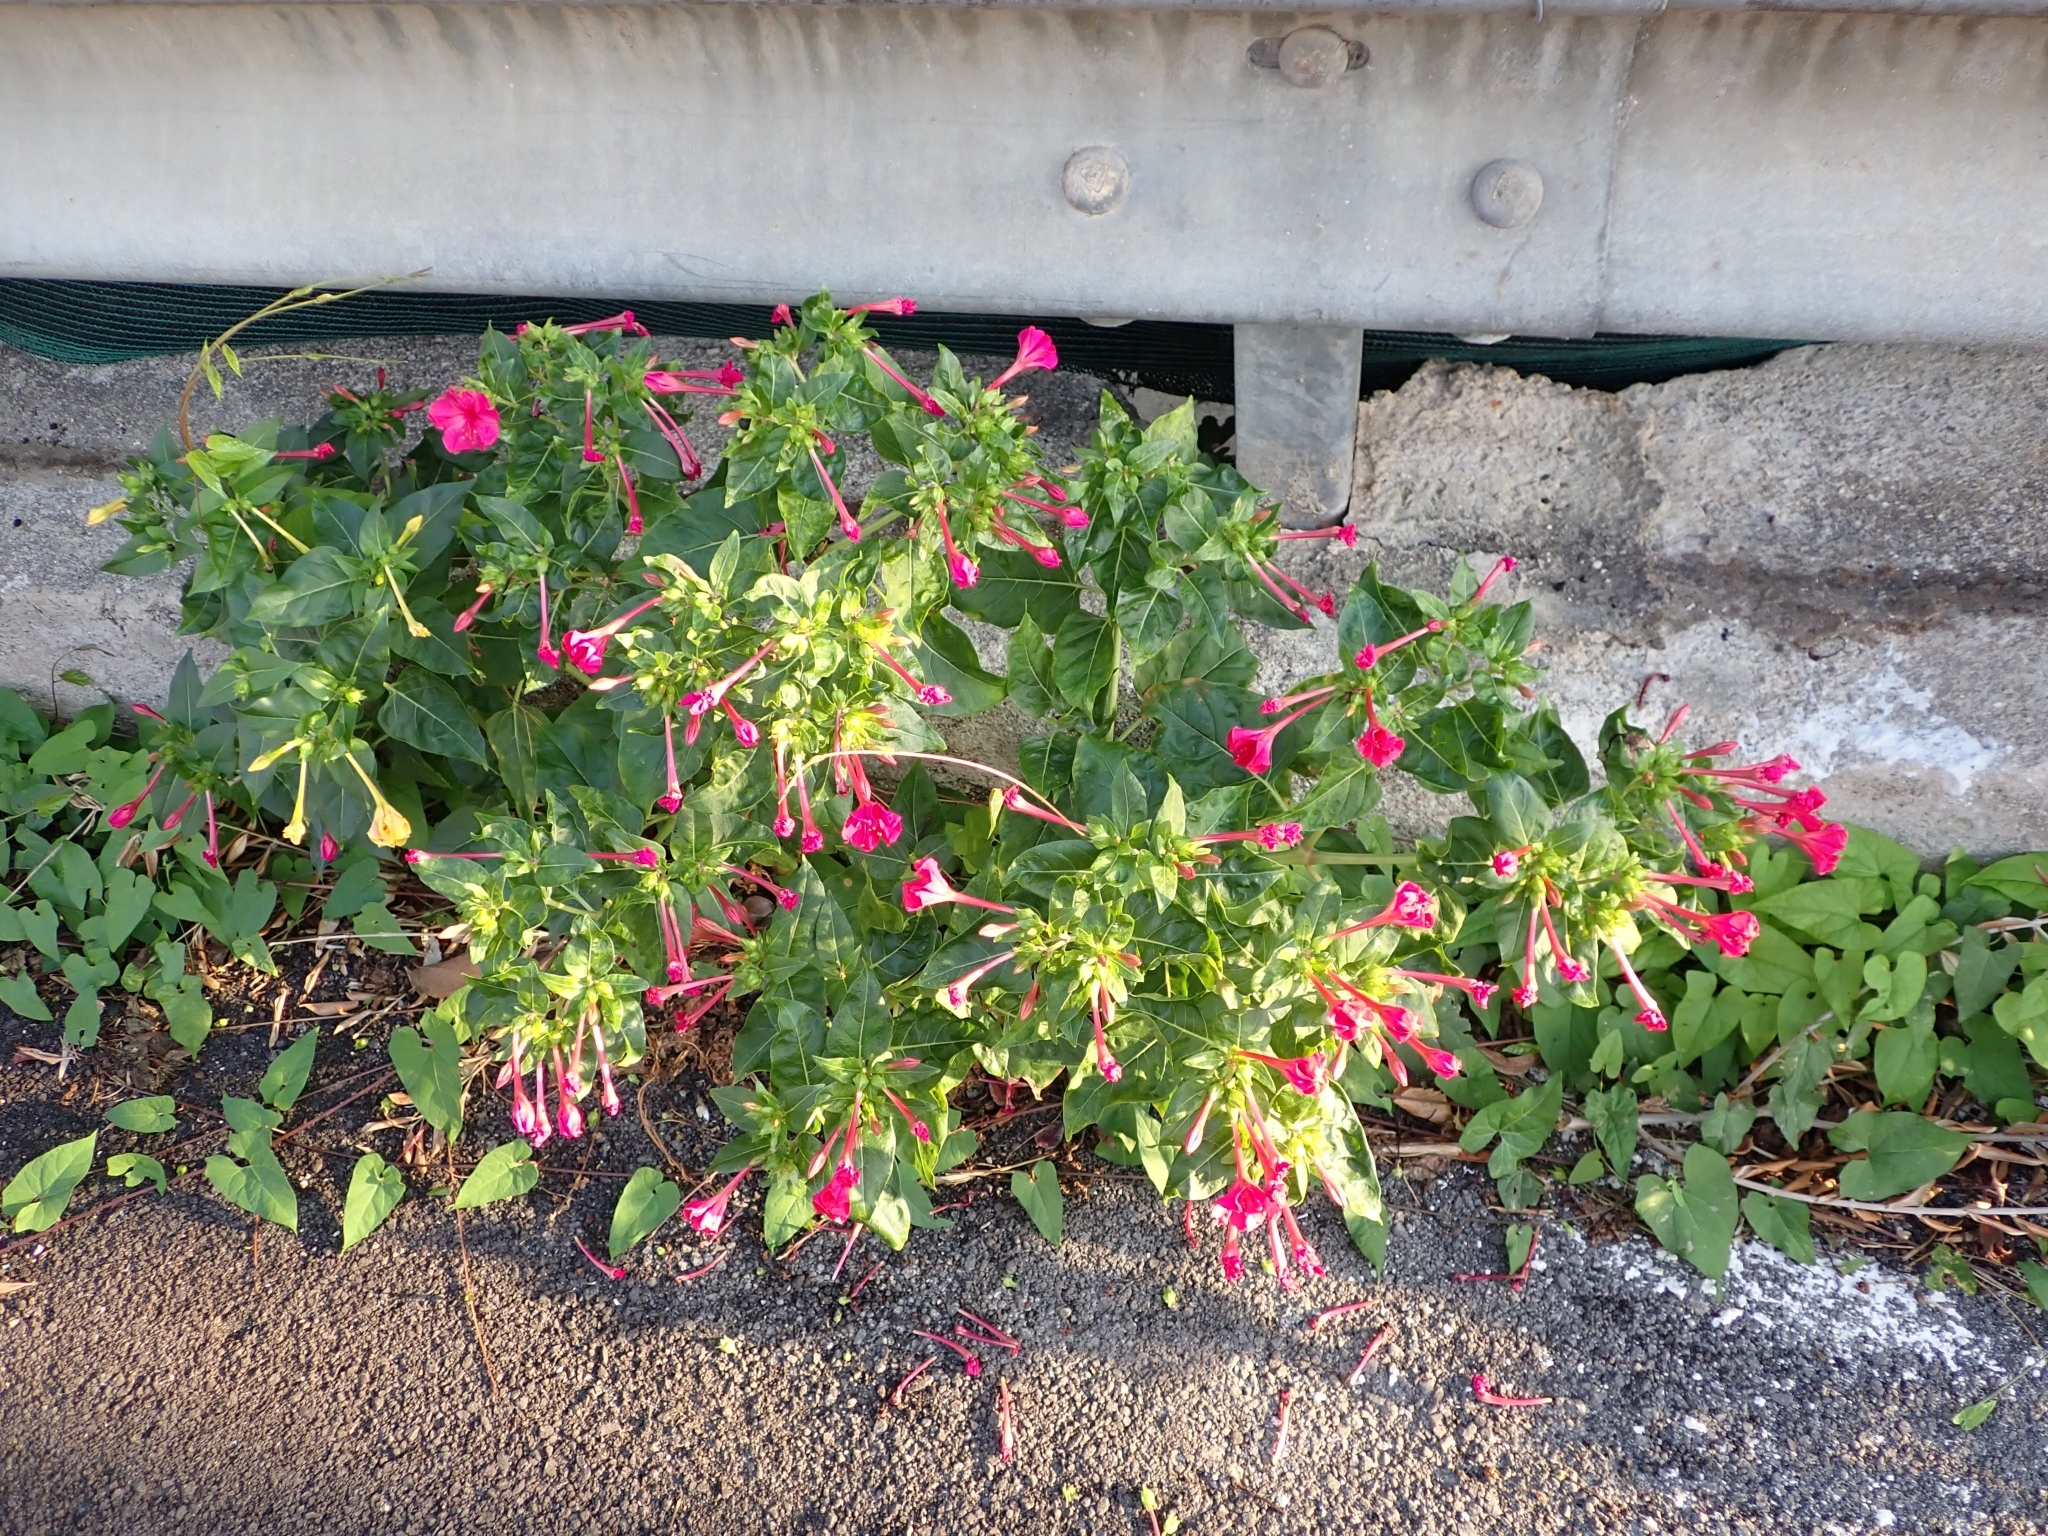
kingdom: Plantae
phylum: Tracheophyta
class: Magnoliopsida
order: Caryophyllales
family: Nyctaginaceae
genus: Mirabilis
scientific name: Mirabilis jalapa
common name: Marvel-of-peru
